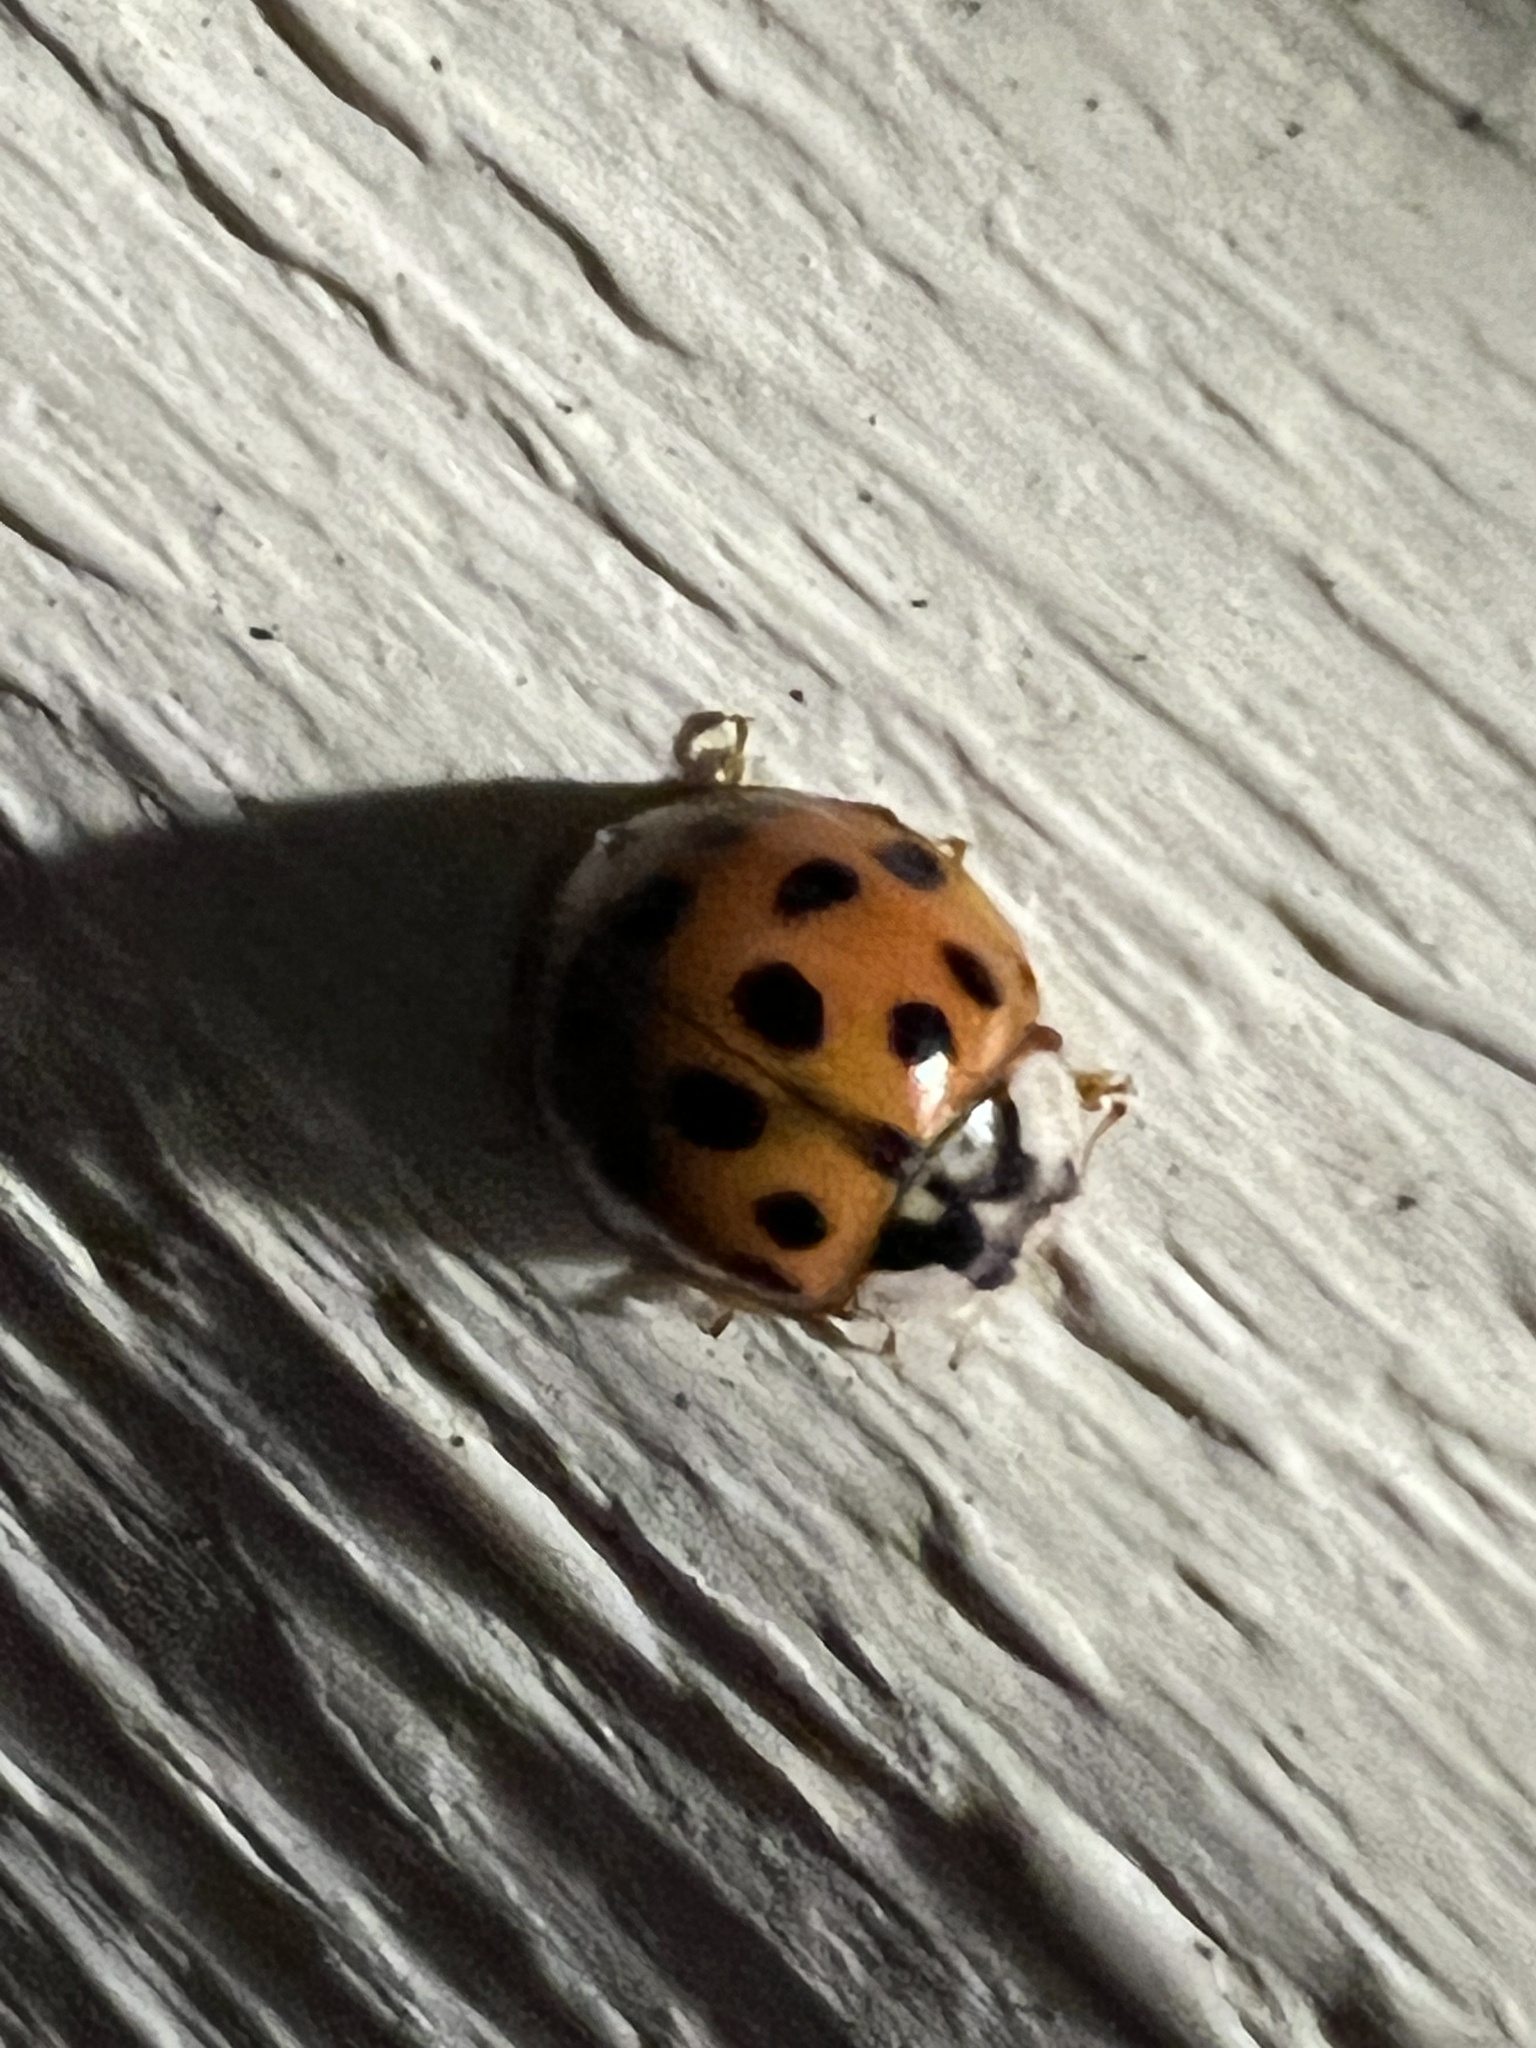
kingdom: Animalia
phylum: Arthropoda
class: Insecta
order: Coleoptera
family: Coccinellidae
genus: Harmonia
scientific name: Harmonia axyridis
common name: Harlequin ladybird
